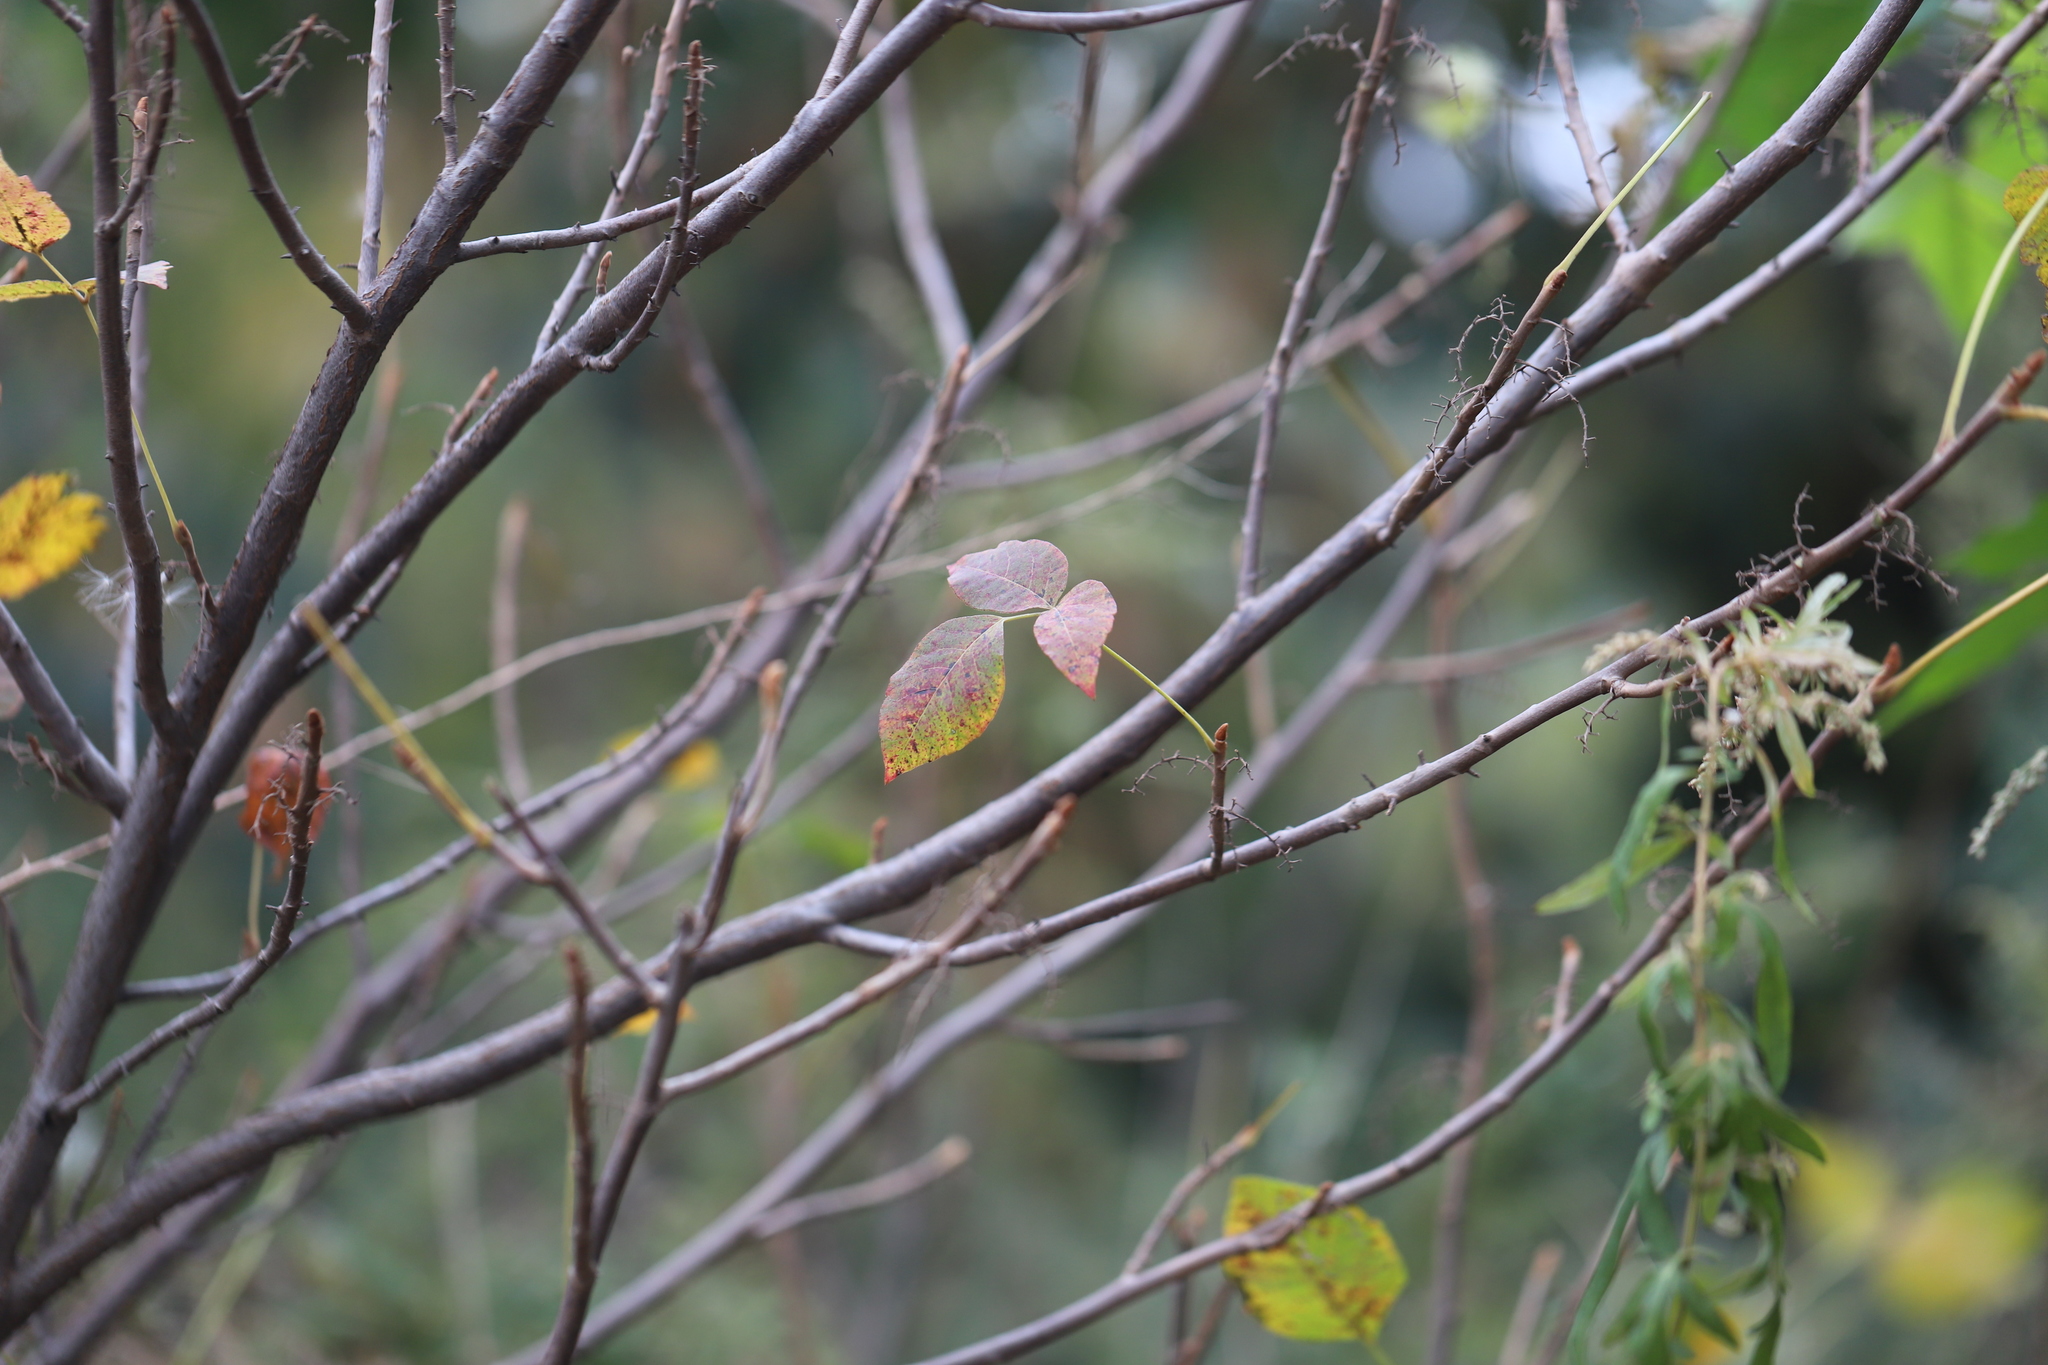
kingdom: Plantae
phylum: Tracheophyta
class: Magnoliopsida
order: Sapindales
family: Anacardiaceae
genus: Toxicodendron
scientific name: Toxicodendron radicans
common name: Poison ivy
